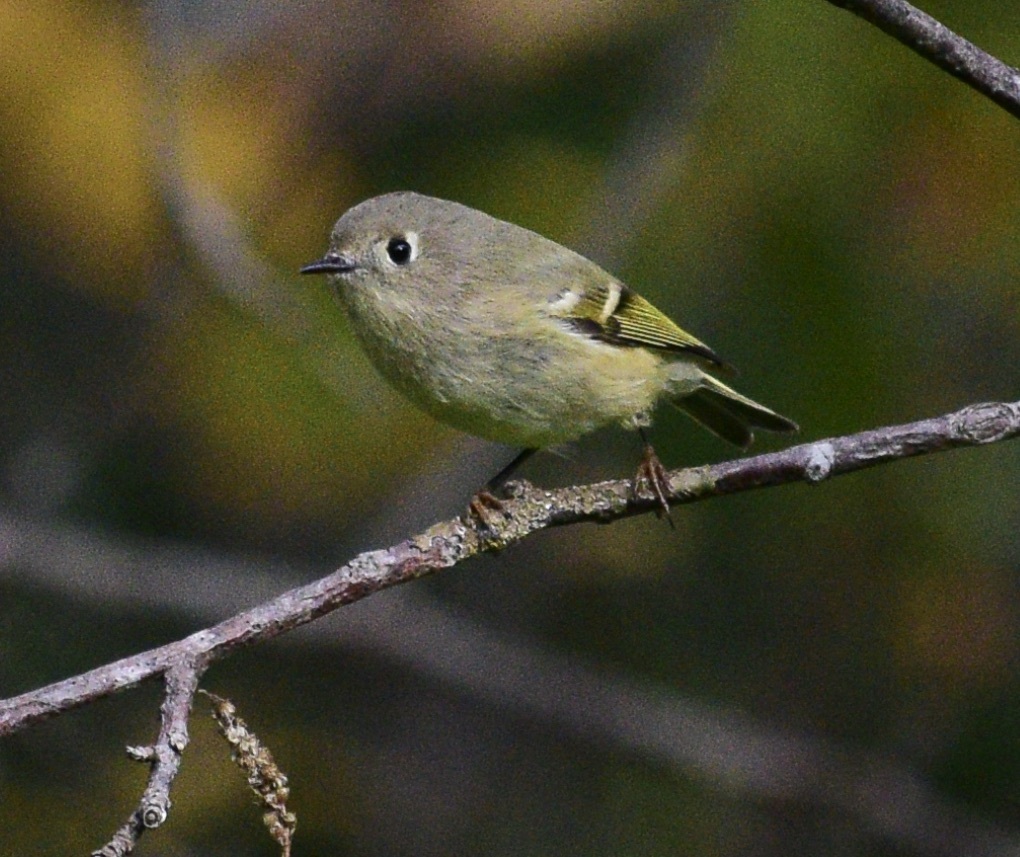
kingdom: Animalia
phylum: Chordata
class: Aves
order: Passeriformes
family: Regulidae
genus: Regulus
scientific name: Regulus calendula
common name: Ruby-crowned kinglet
